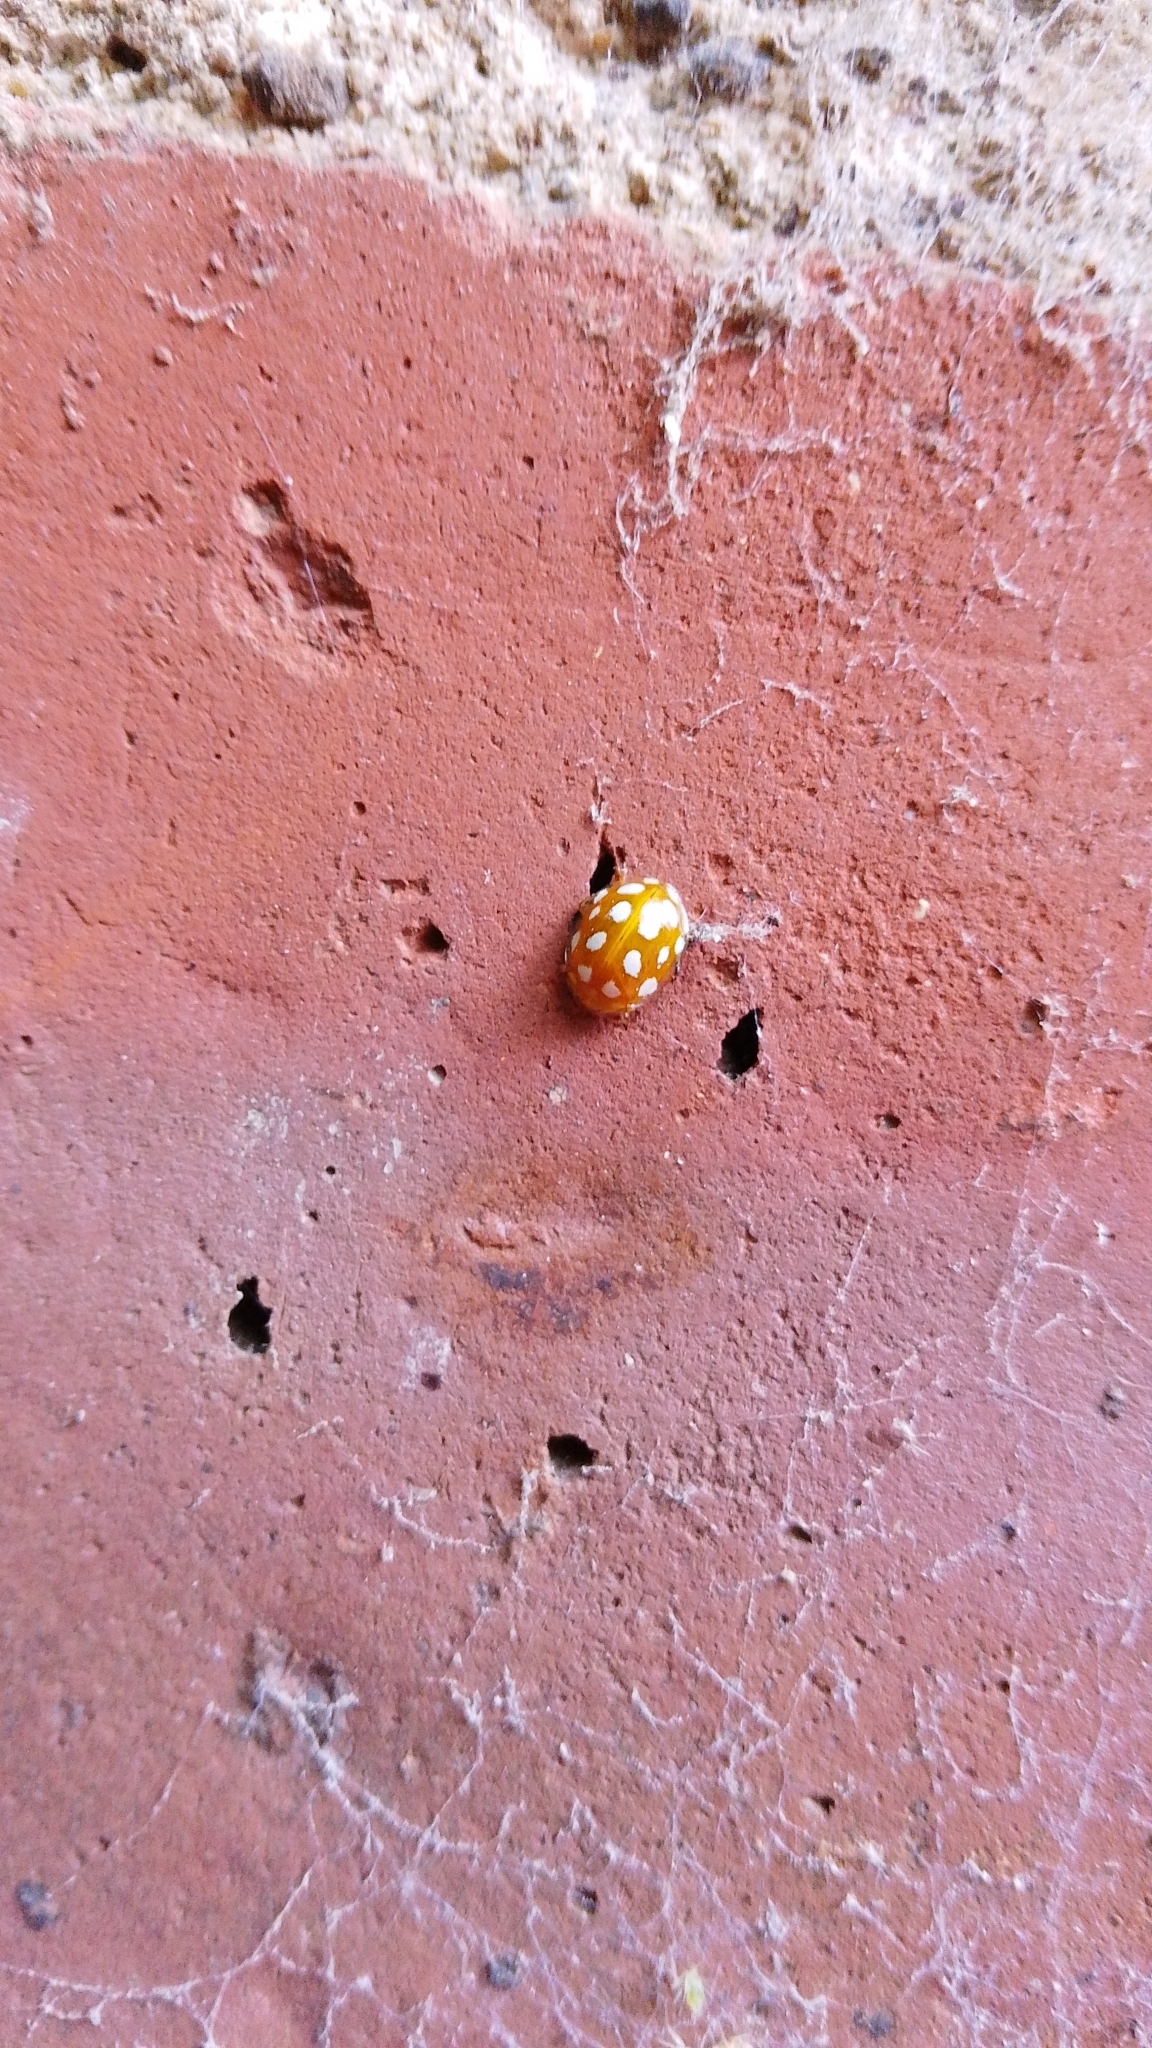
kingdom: Animalia
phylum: Arthropoda
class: Insecta
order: Coleoptera
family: Coccinellidae
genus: Halyzia
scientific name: Halyzia sedecimguttata
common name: Orange ladybird
